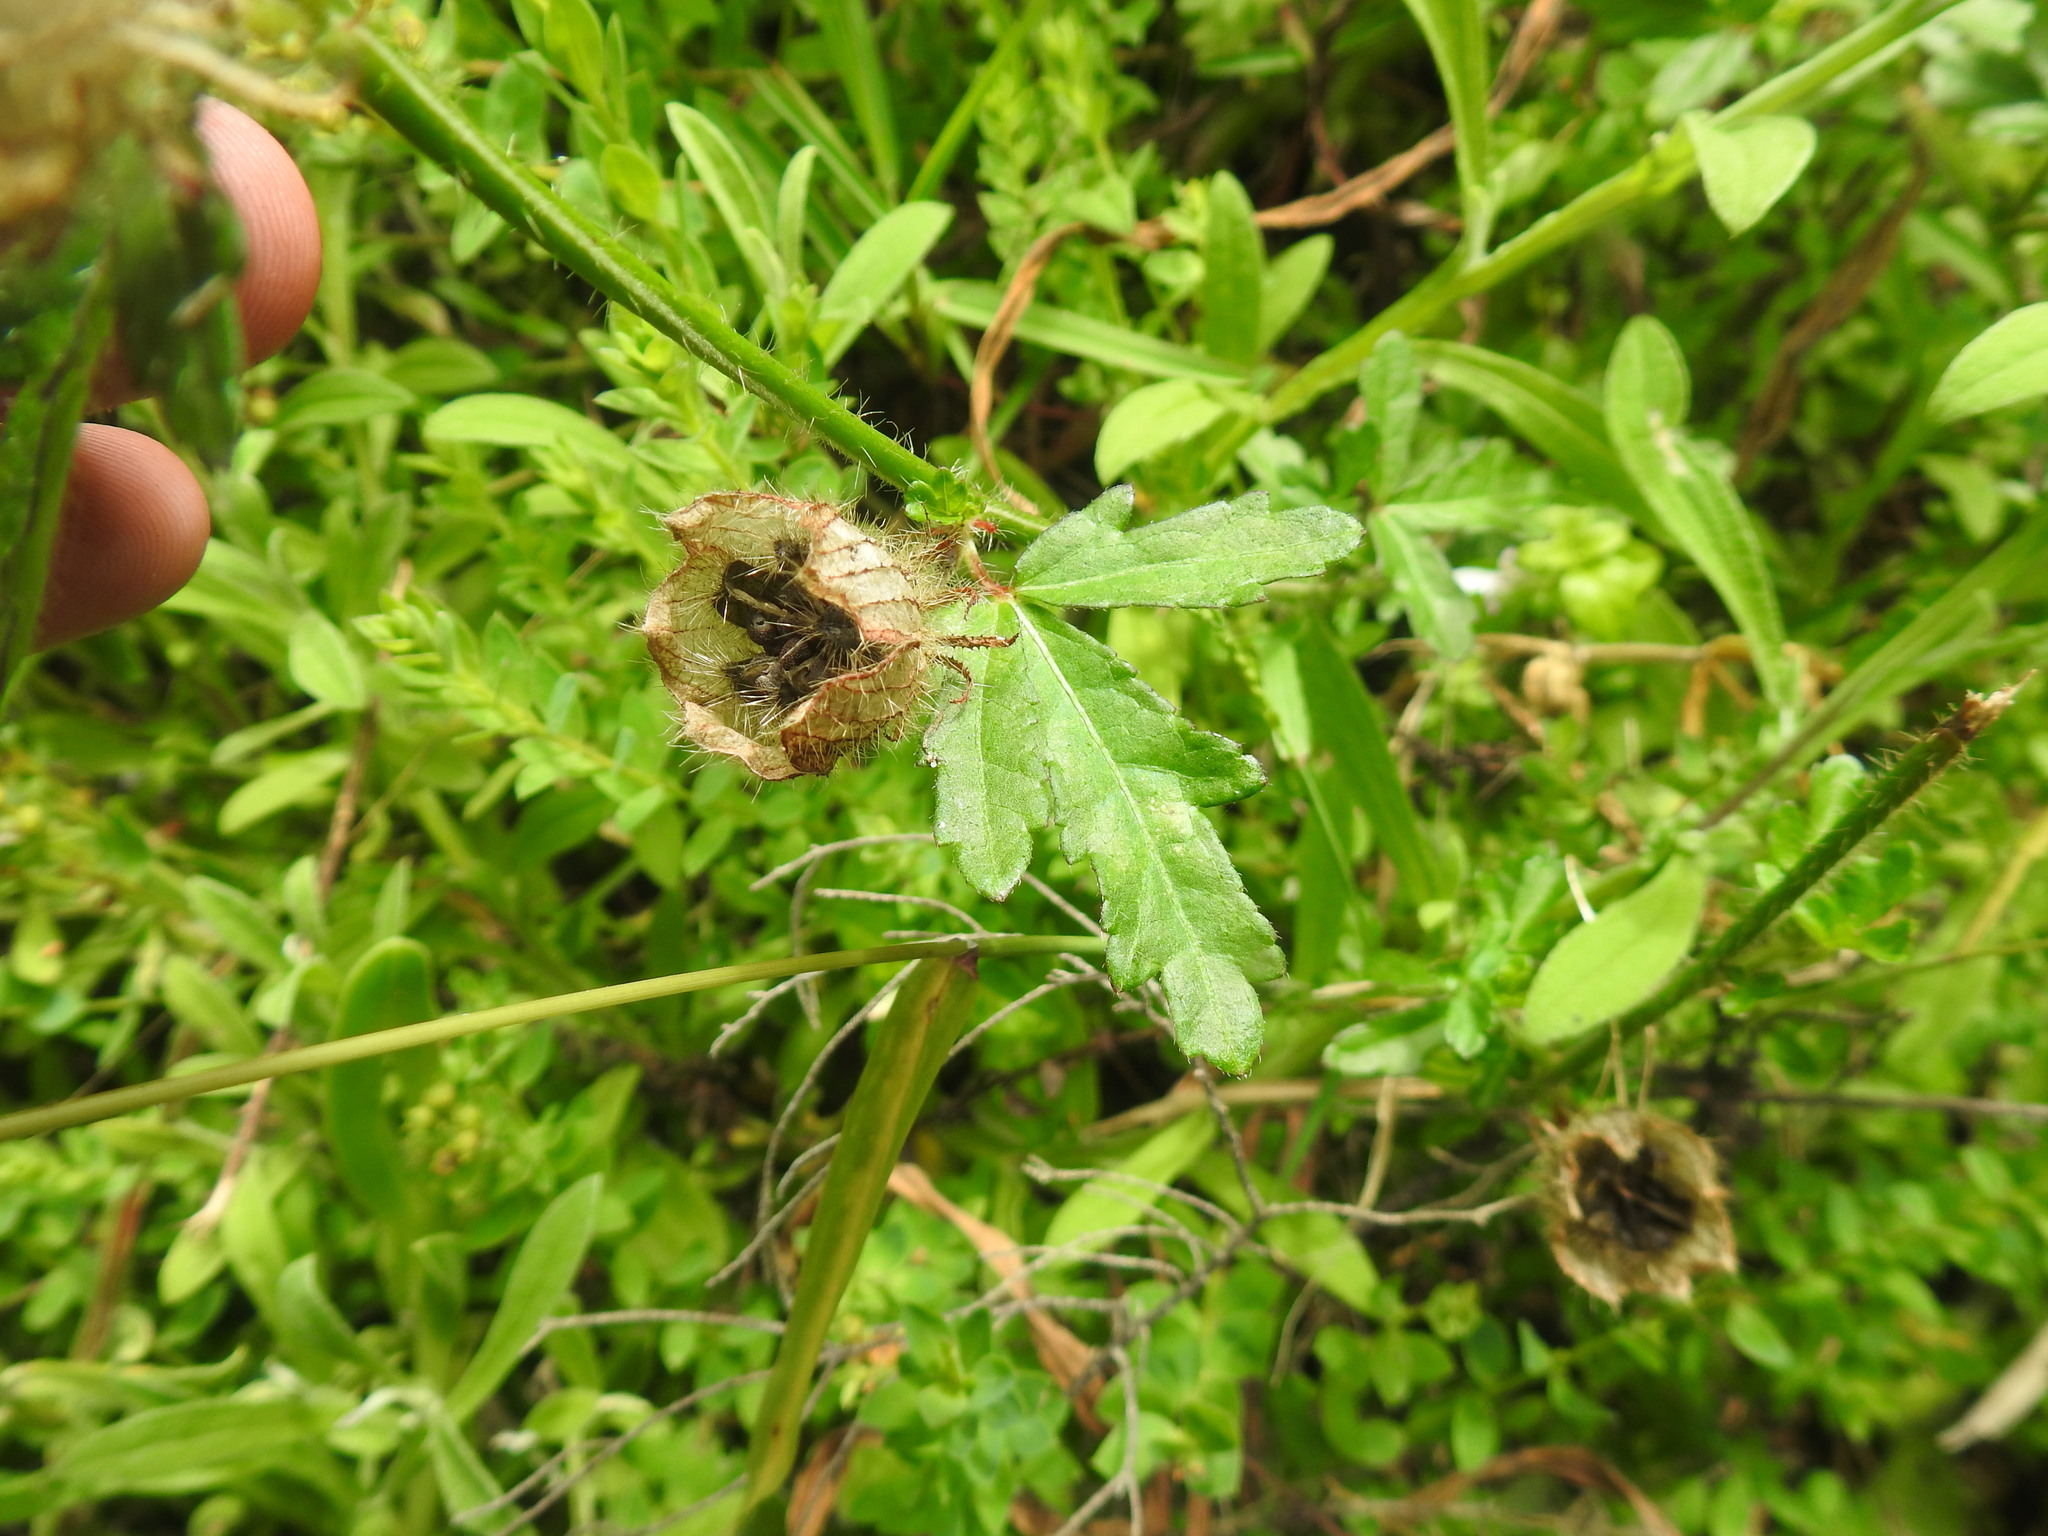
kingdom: Plantae
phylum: Tracheophyta
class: Magnoliopsida
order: Malvales
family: Malvaceae
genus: Hibiscus
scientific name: Hibiscus trionum
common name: Bladder ketmia
